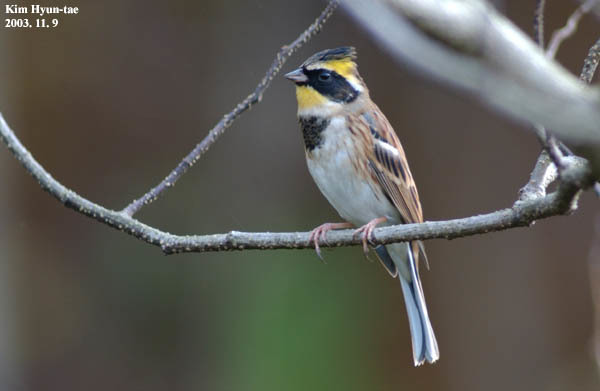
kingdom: Animalia
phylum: Chordata
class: Aves
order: Passeriformes
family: Emberizidae
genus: Emberiza
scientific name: Emberiza elegans
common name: Yellow-throated bunting
